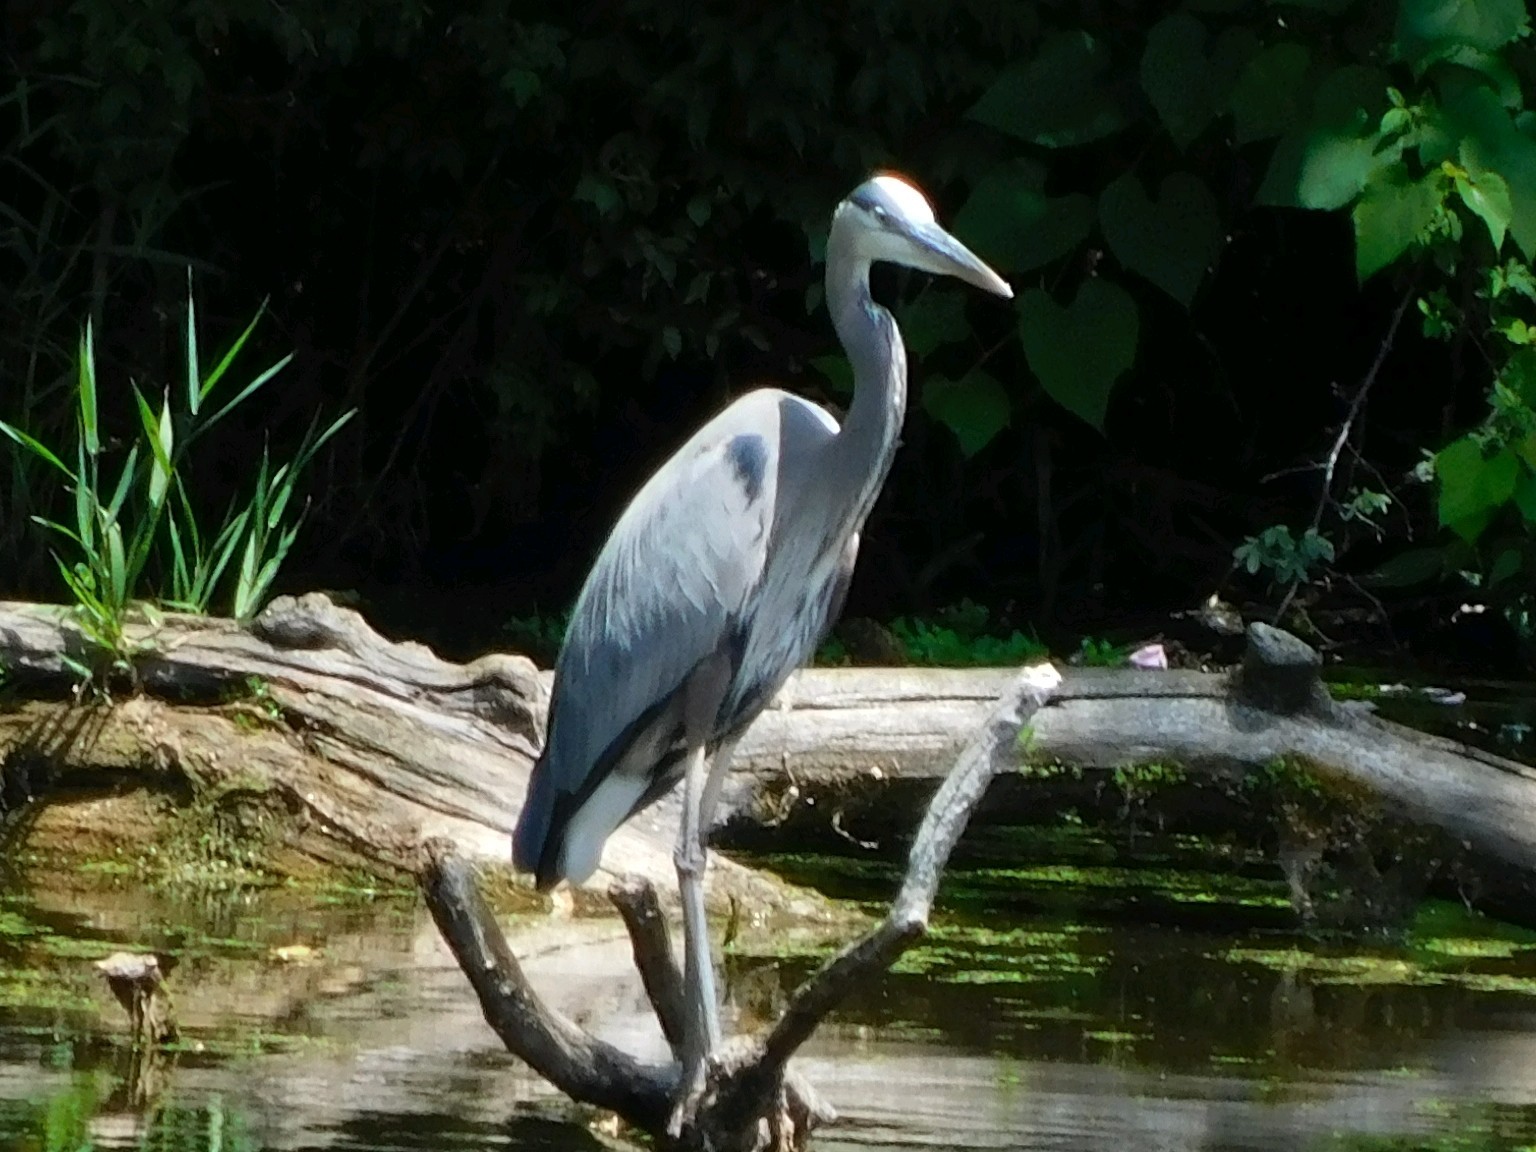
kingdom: Animalia
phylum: Chordata
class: Aves
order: Pelecaniformes
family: Ardeidae
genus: Ardea
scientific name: Ardea herodias
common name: Great blue heron
